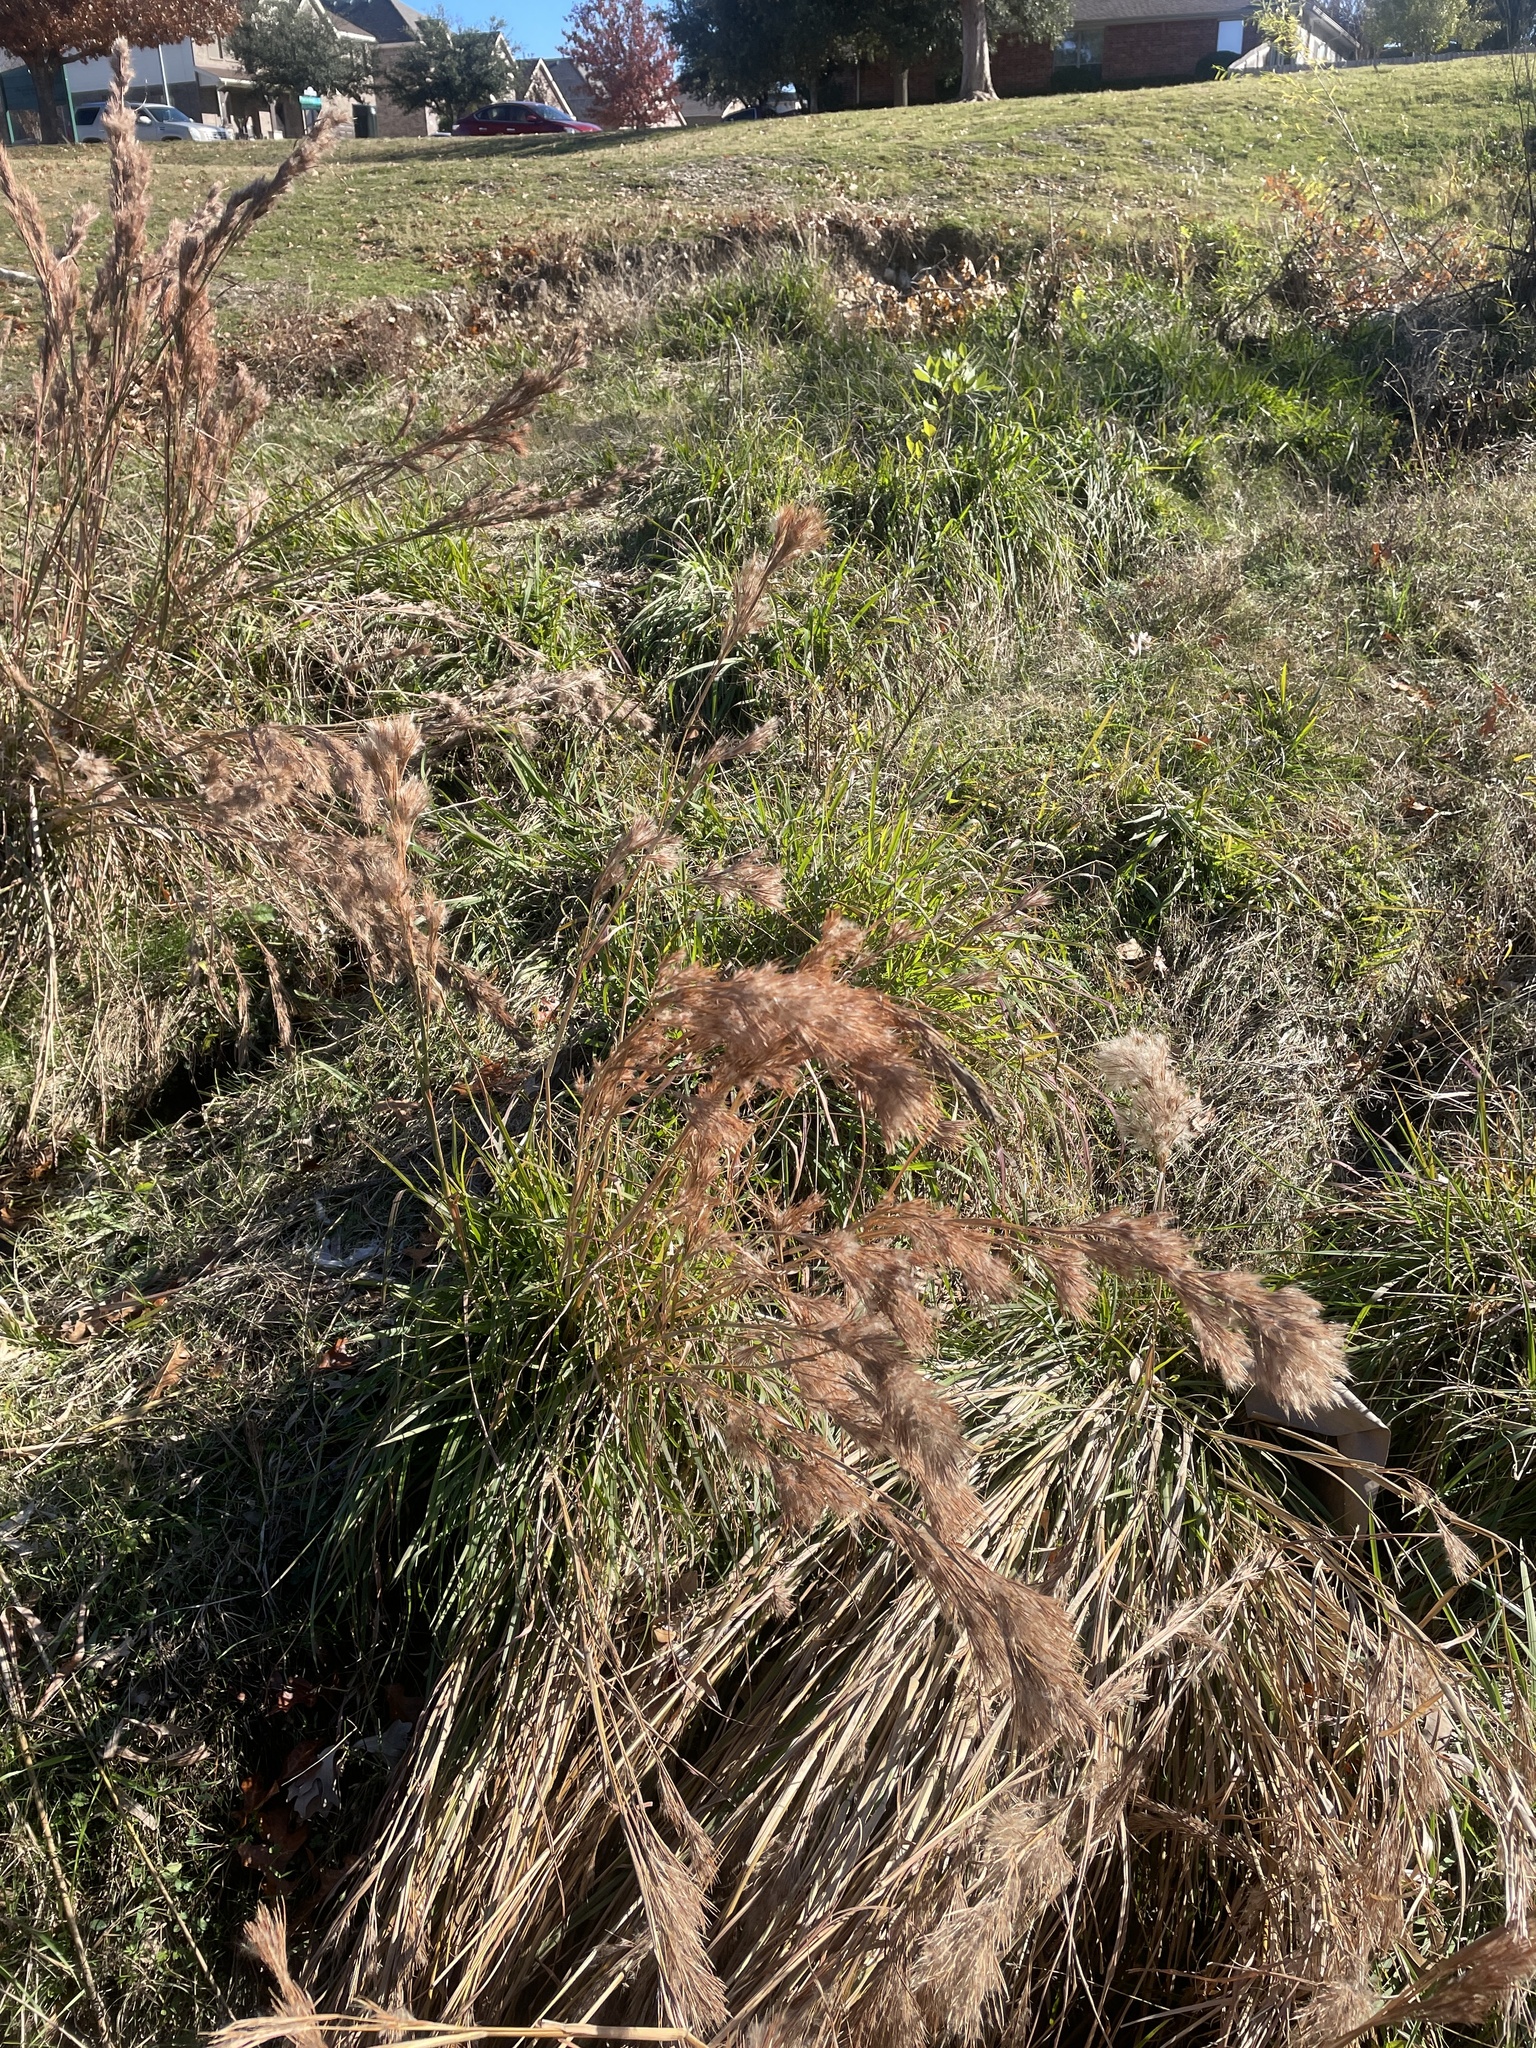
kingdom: Plantae
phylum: Tracheophyta
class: Liliopsida
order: Poales
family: Poaceae
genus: Andropogon
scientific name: Andropogon tenuispatheus
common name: Bushy bluestem
